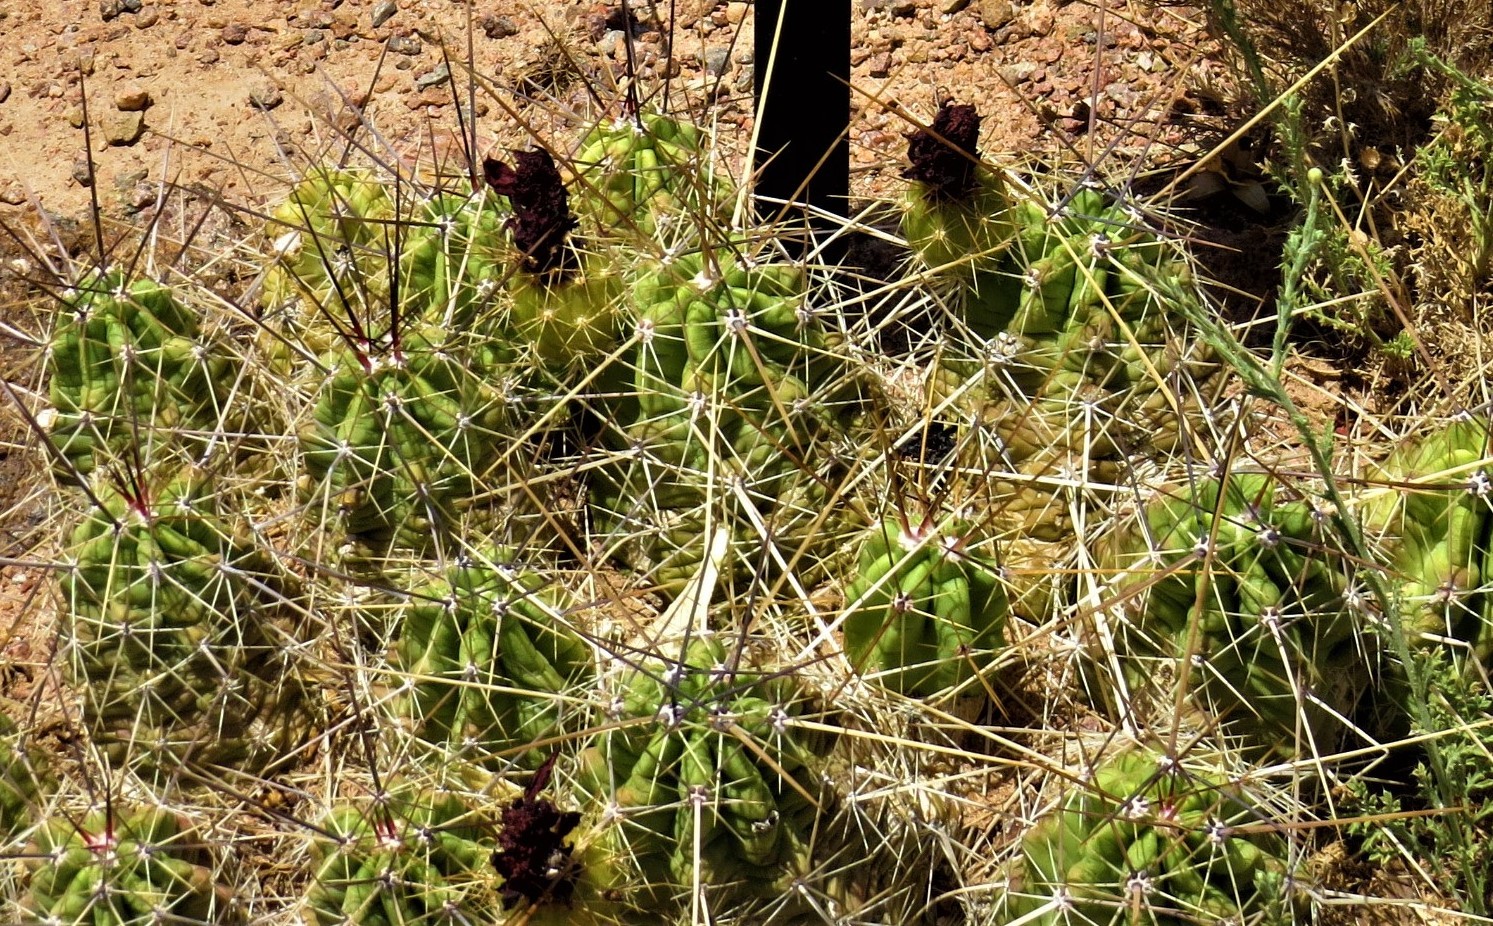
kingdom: Plantae
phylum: Tracheophyta
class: Magnoliopsida
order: Caryophyllales
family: Cactaceae
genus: Echinocereus
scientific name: Echinocereus enneacanthus
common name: Pitaya
